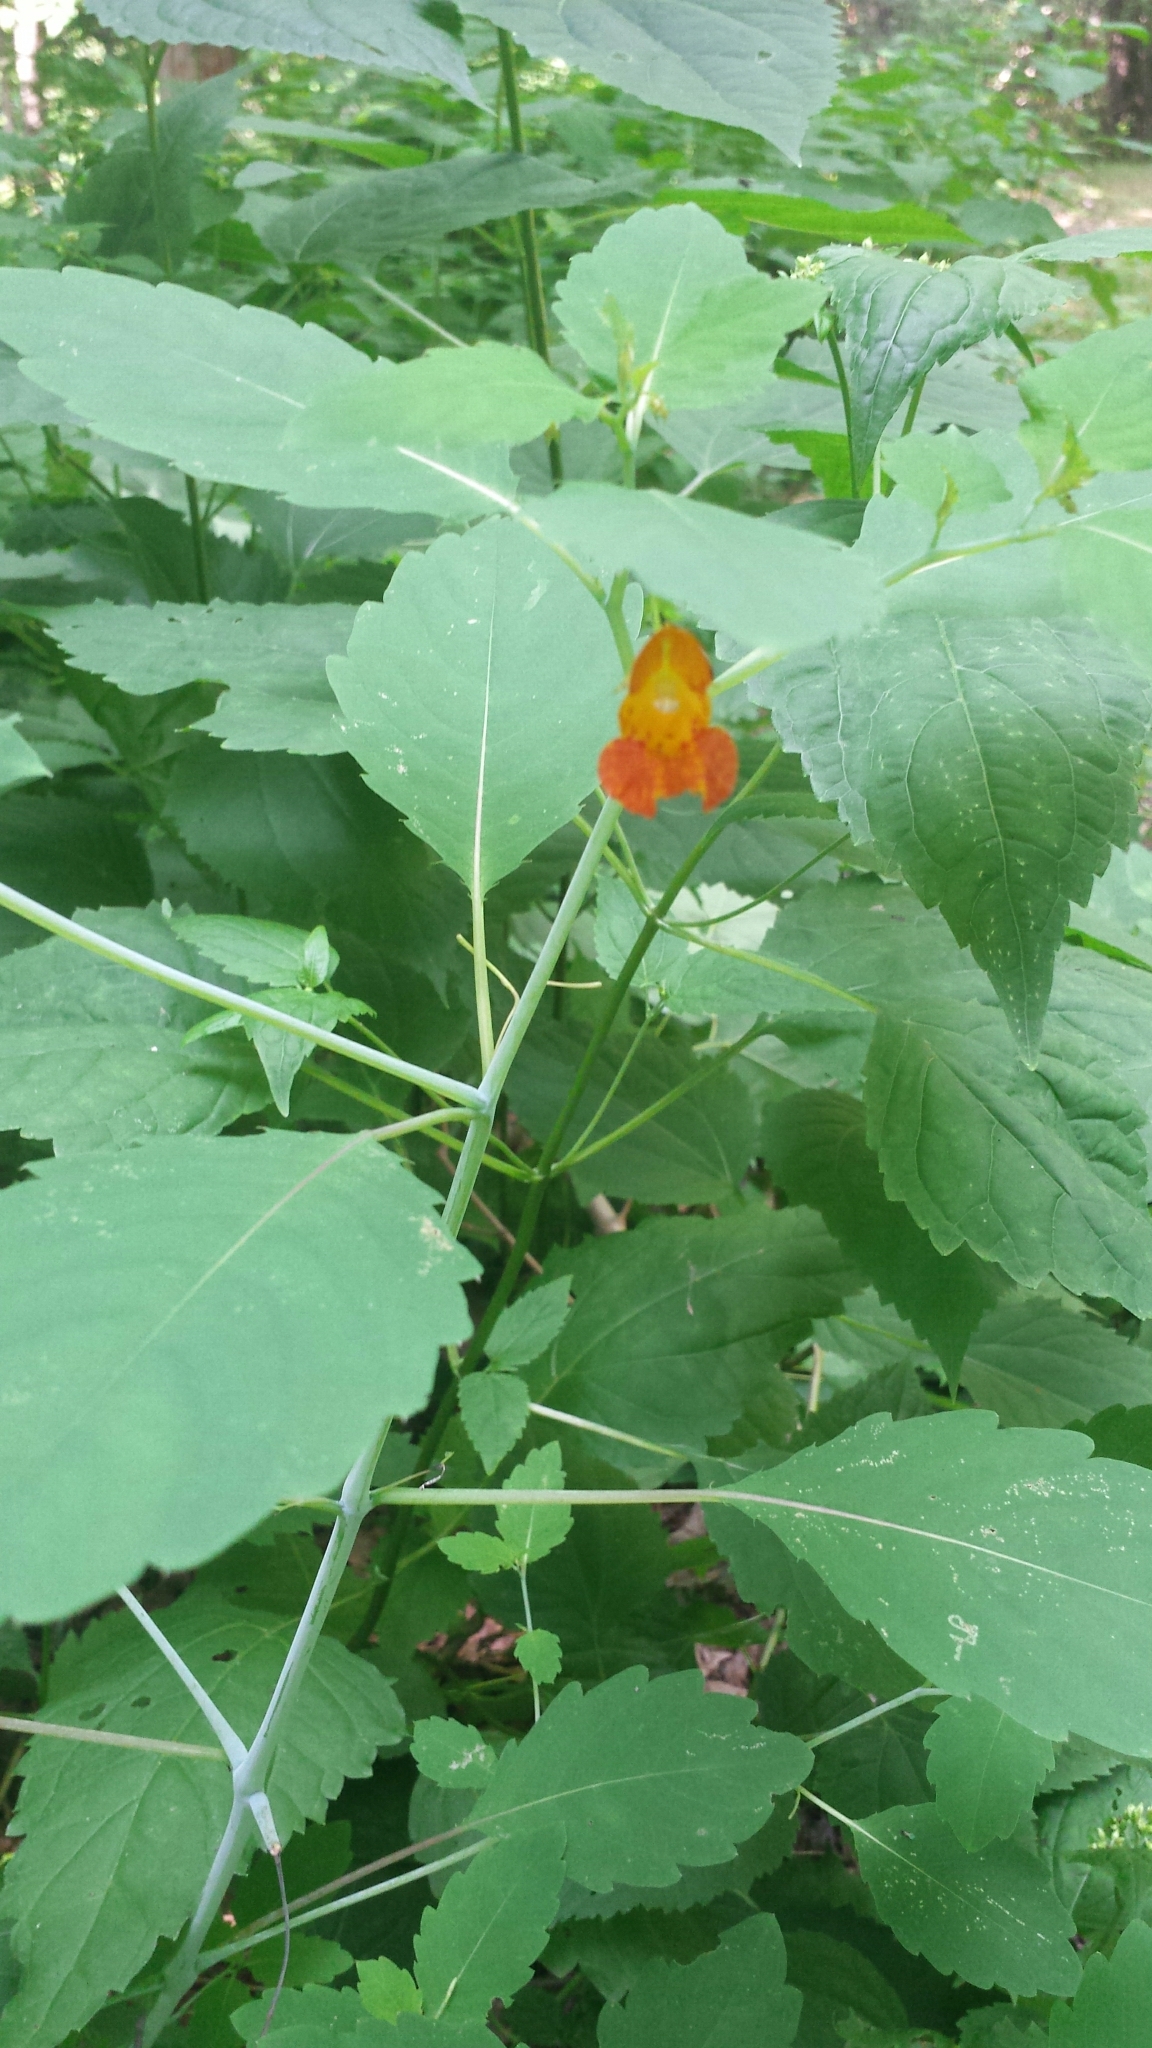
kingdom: Plantae
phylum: Tracheophyta
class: Magnoliopsida
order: Ericales
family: Balsaminaceae
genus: Impatiens
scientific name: Impatiens capensis
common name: Orange balsam
